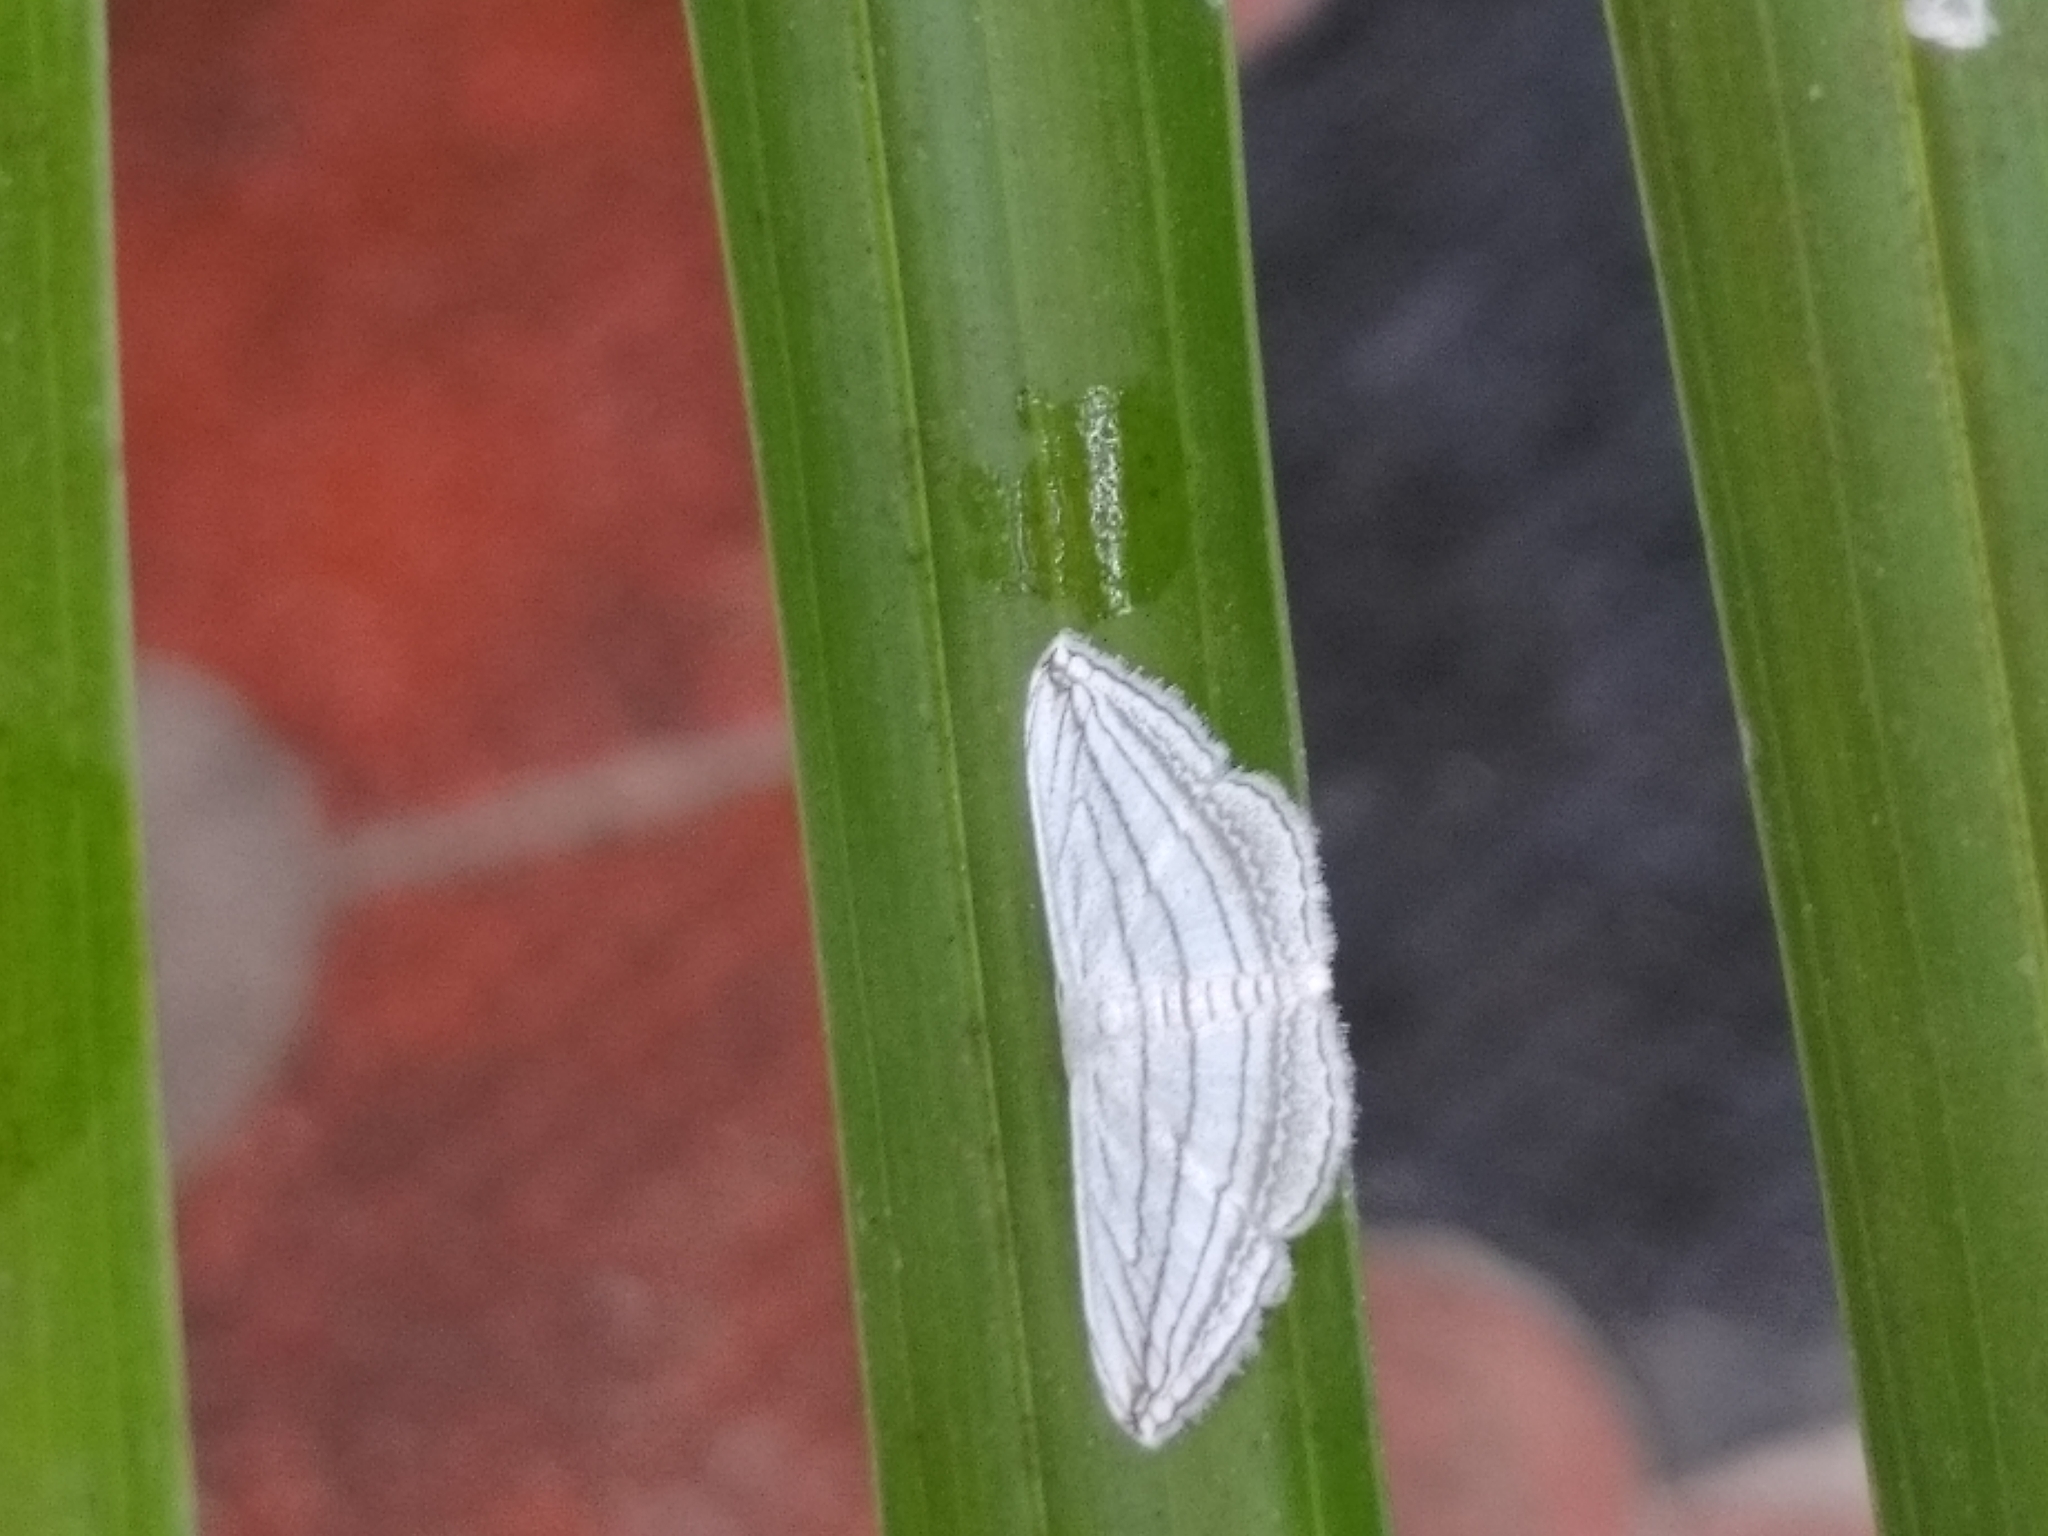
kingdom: Animalia
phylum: Arthropoda
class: Insecta
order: Lepidoptera
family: Geometridae
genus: Scopula
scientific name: Scopula opicata
